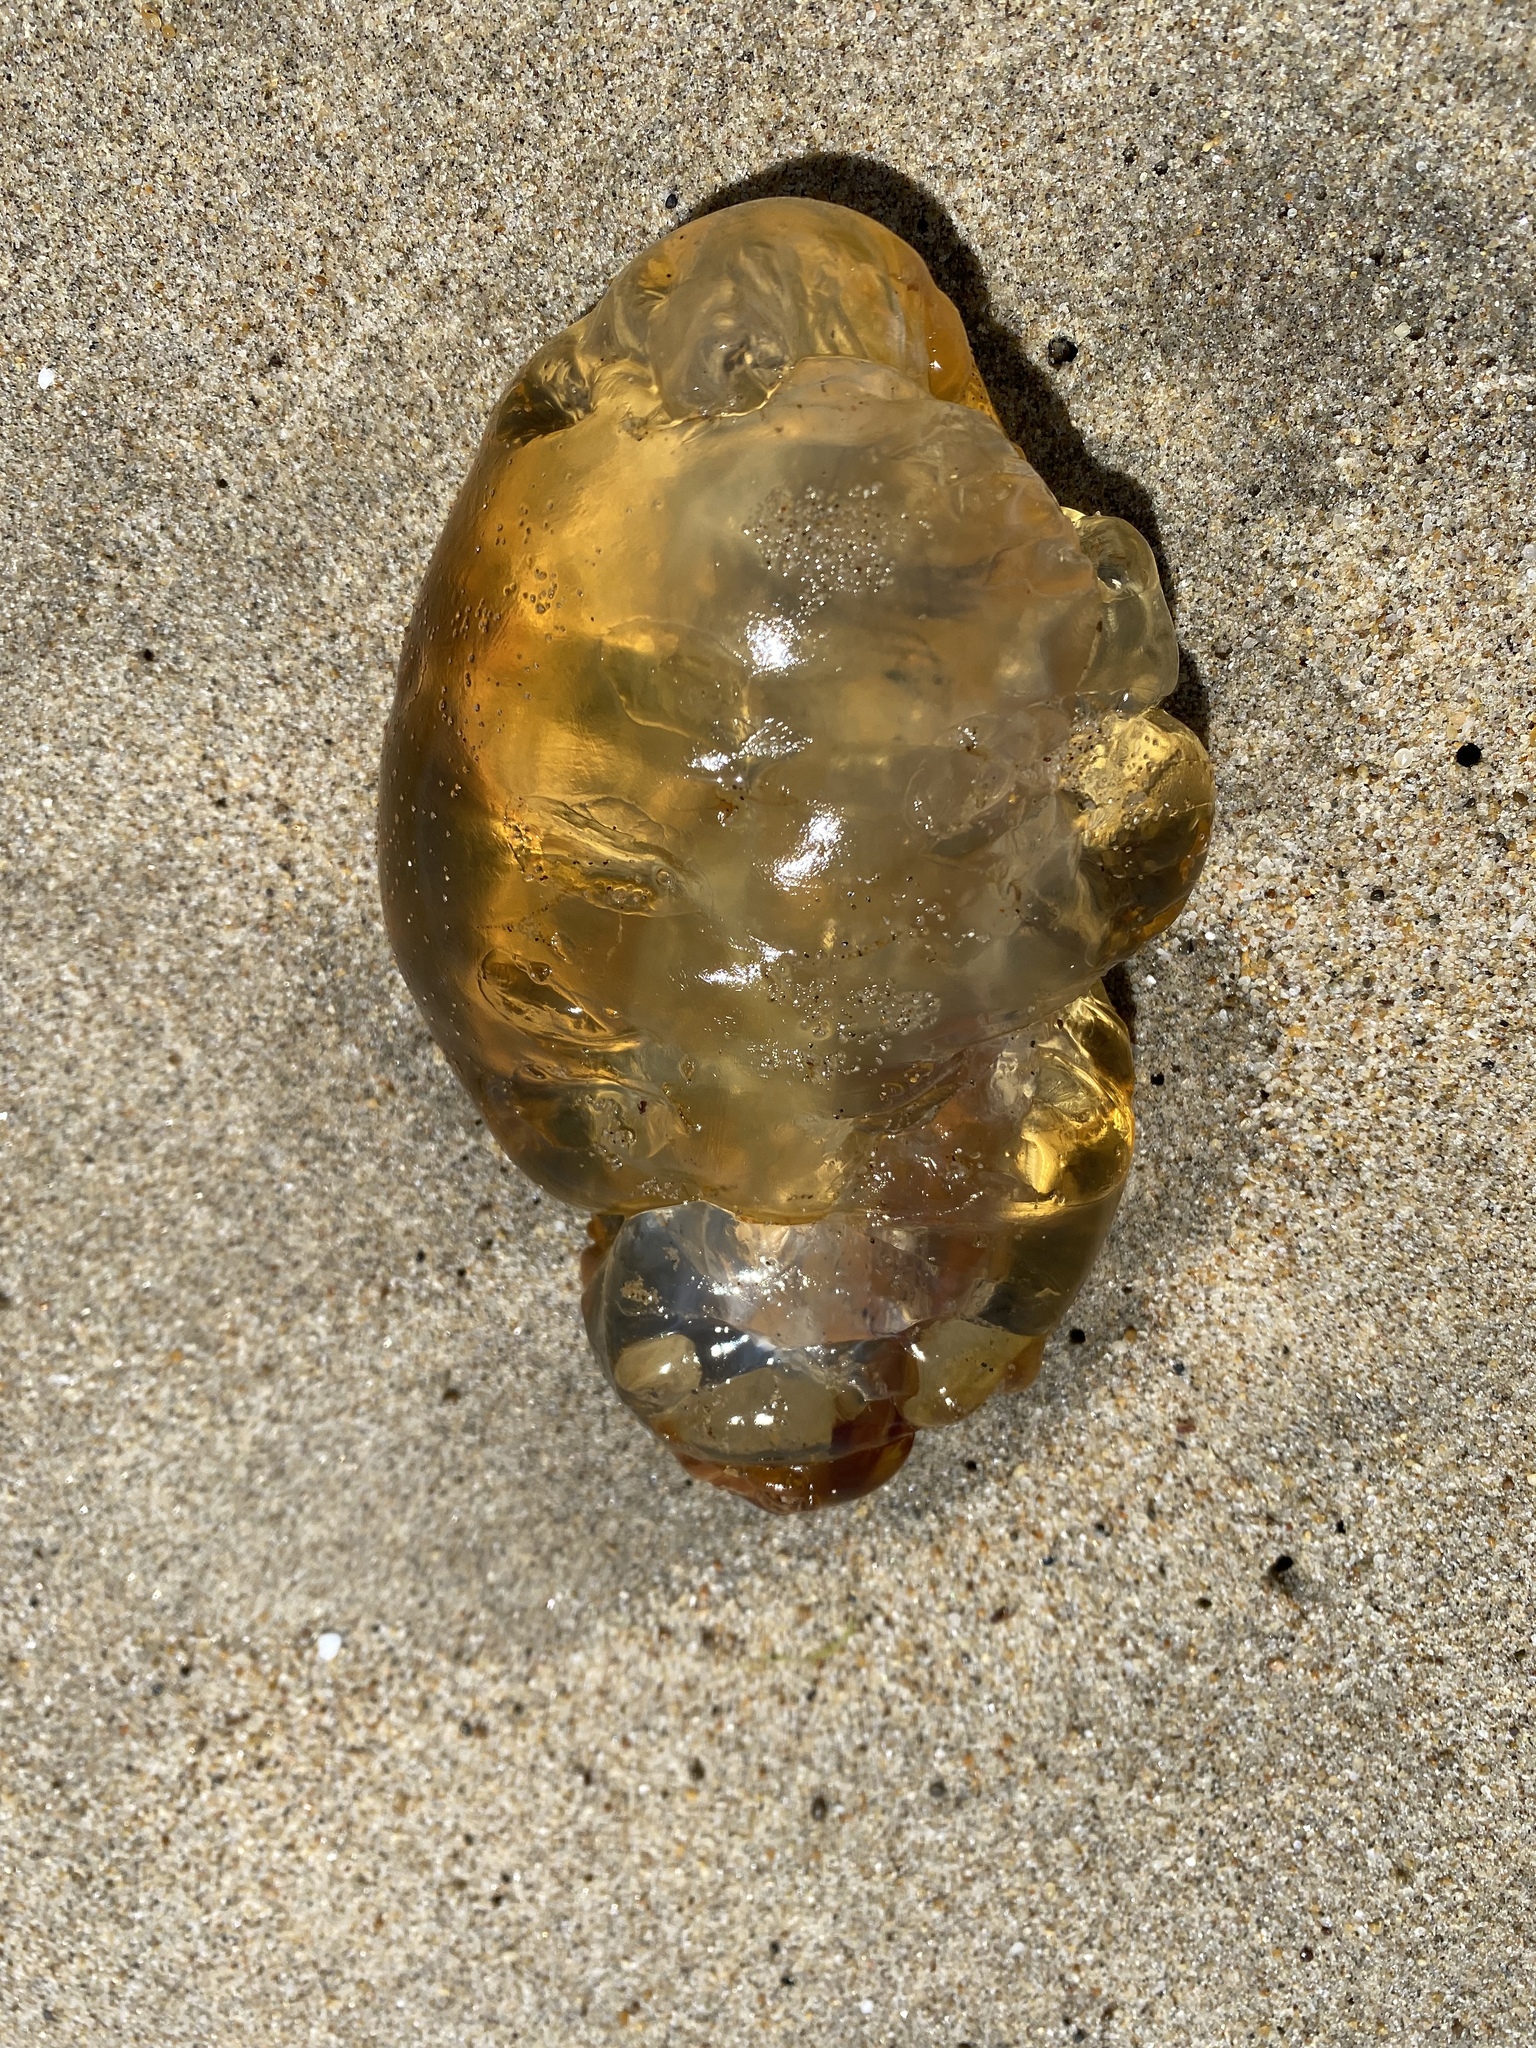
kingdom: Animalia
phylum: Cnidaria
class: Scyphozoa
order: Semaeostomeae
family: Pelagiidae
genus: Chrysaora
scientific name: Chrysaora fuscescens
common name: Sea nettle
